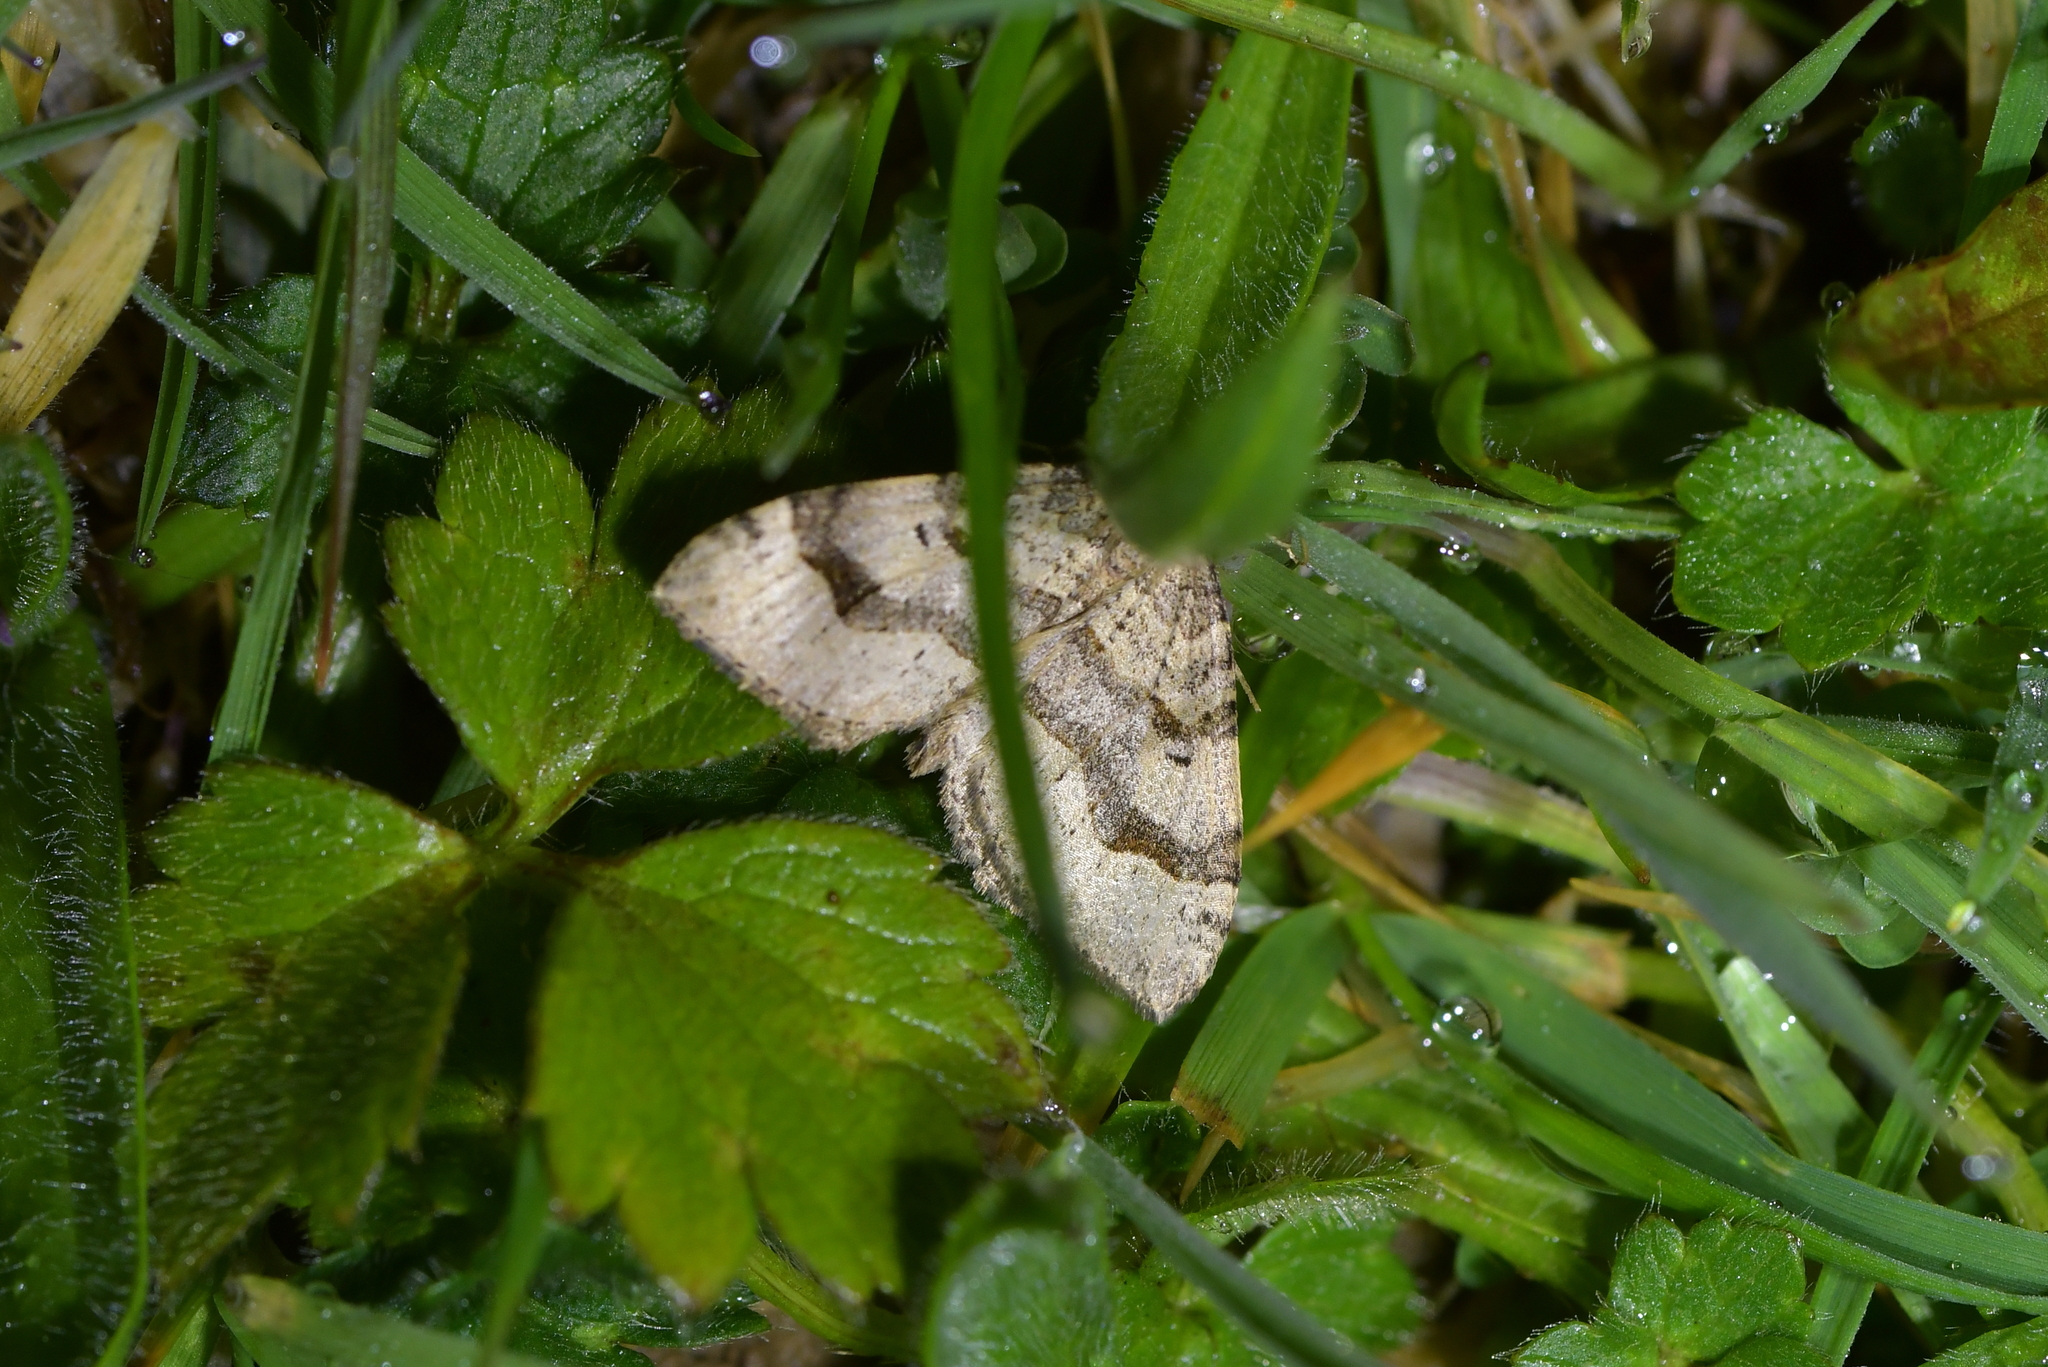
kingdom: Animalia
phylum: Arthropoda
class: Insecta
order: Lepidoptera
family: Geometridae
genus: Epyaxa
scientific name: Epyaxa rosearia
